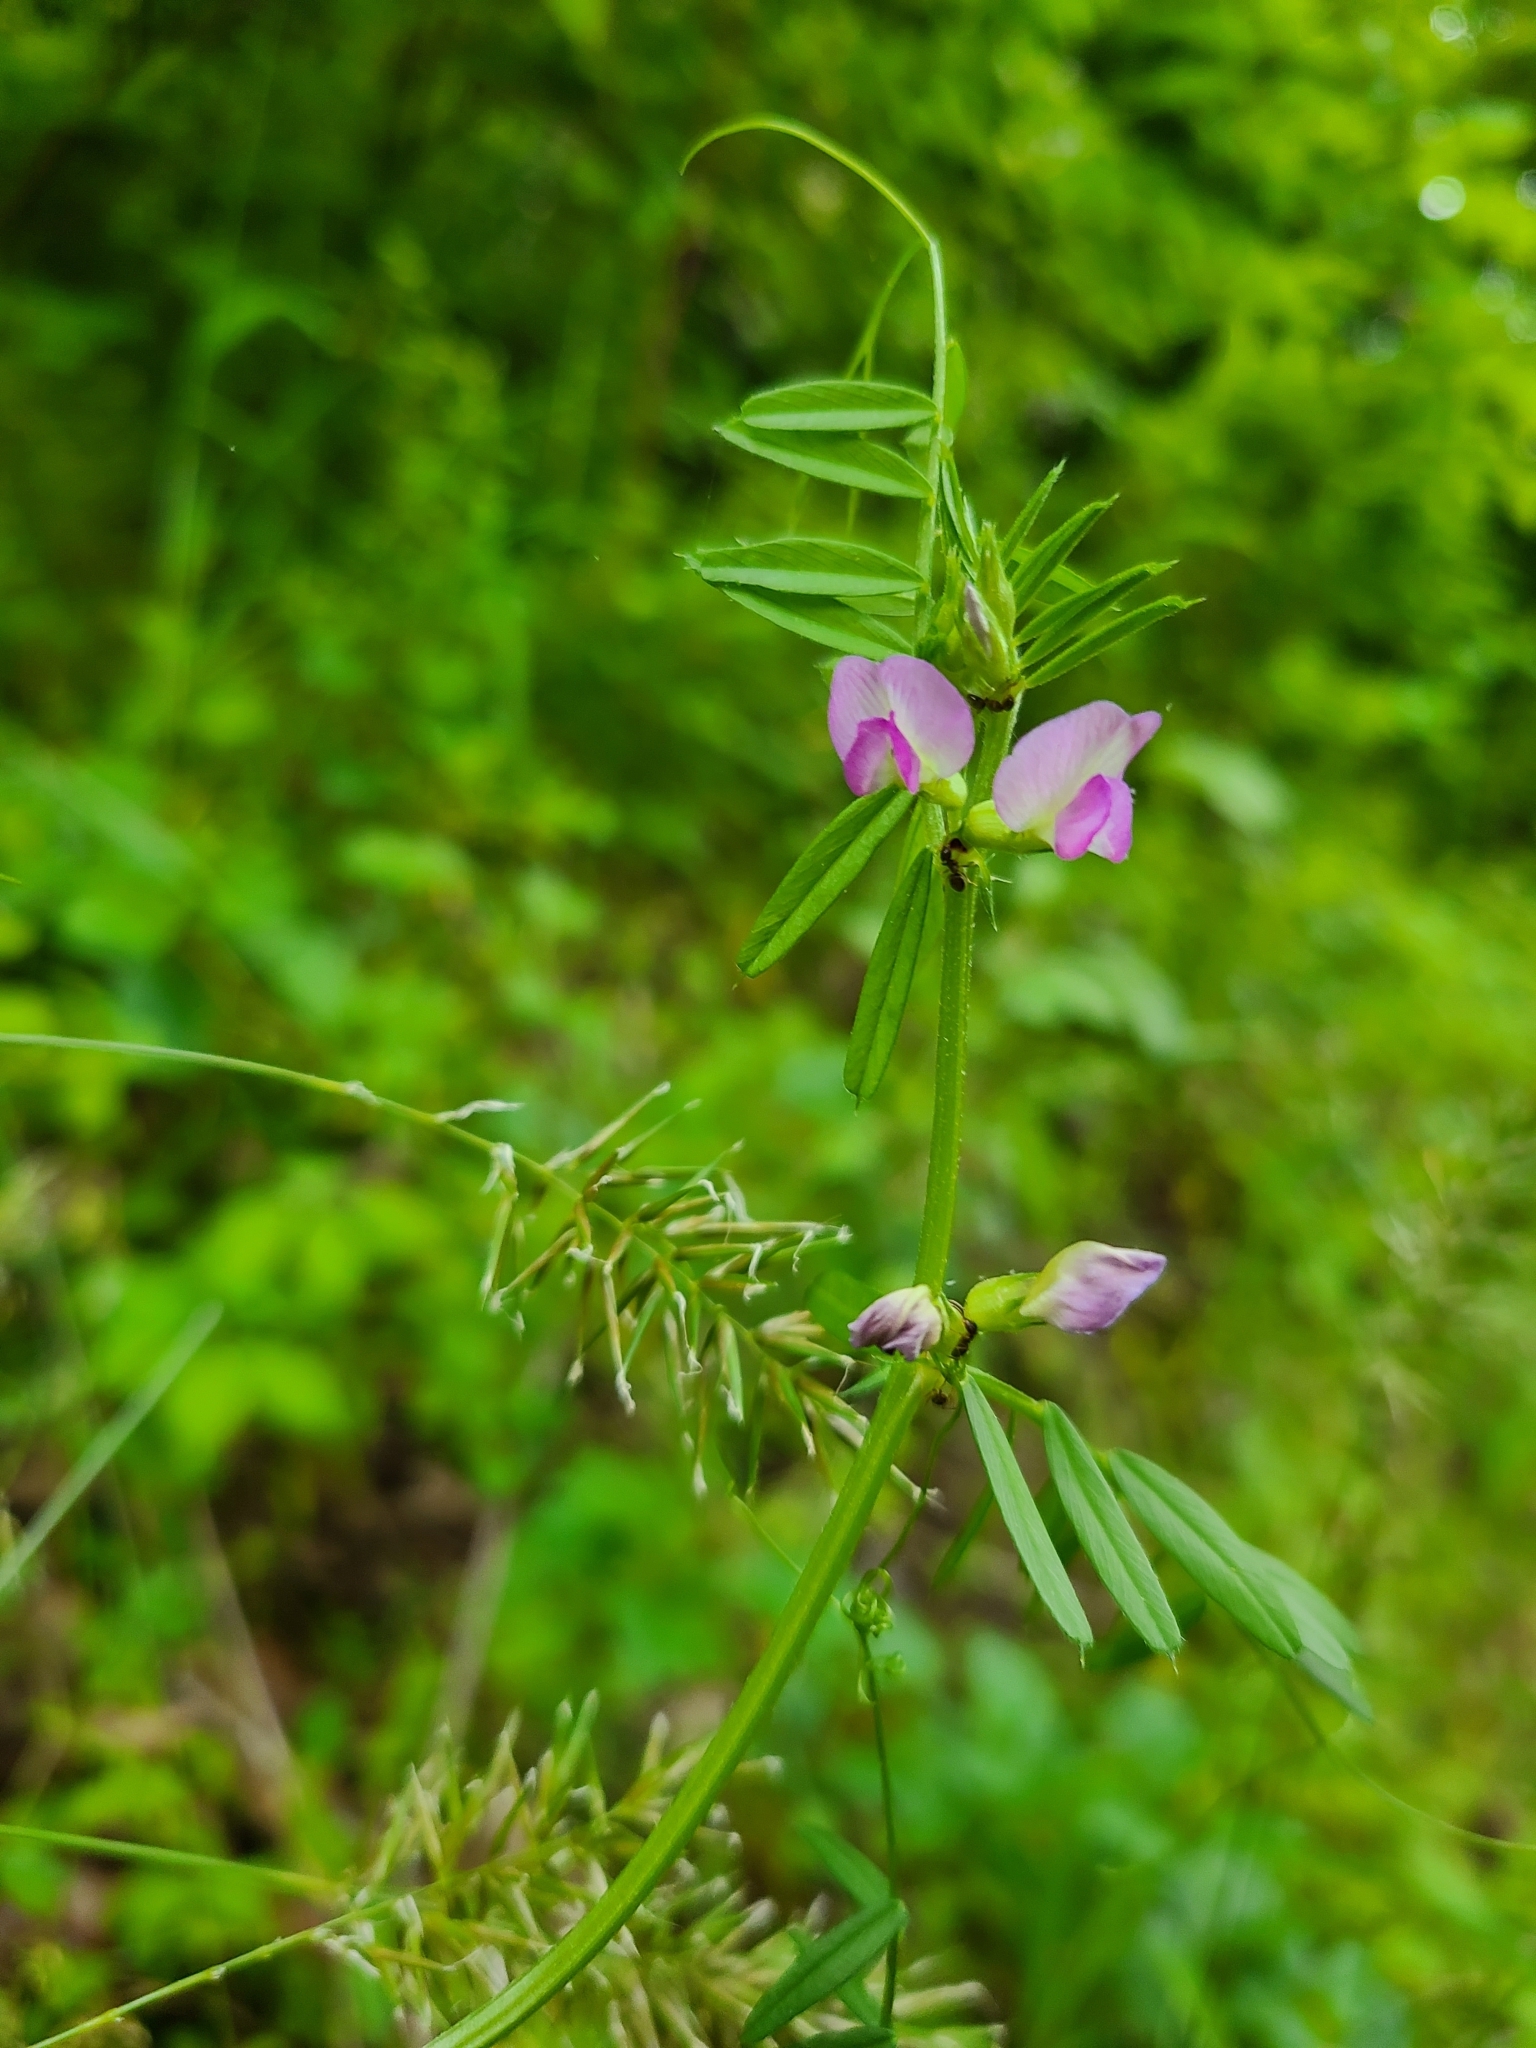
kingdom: Plantae
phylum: Tracheophyta
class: Magnoliopsida
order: Fabales
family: Fabaceae
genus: Vicia
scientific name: Vicia sativa
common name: Garden vetch
